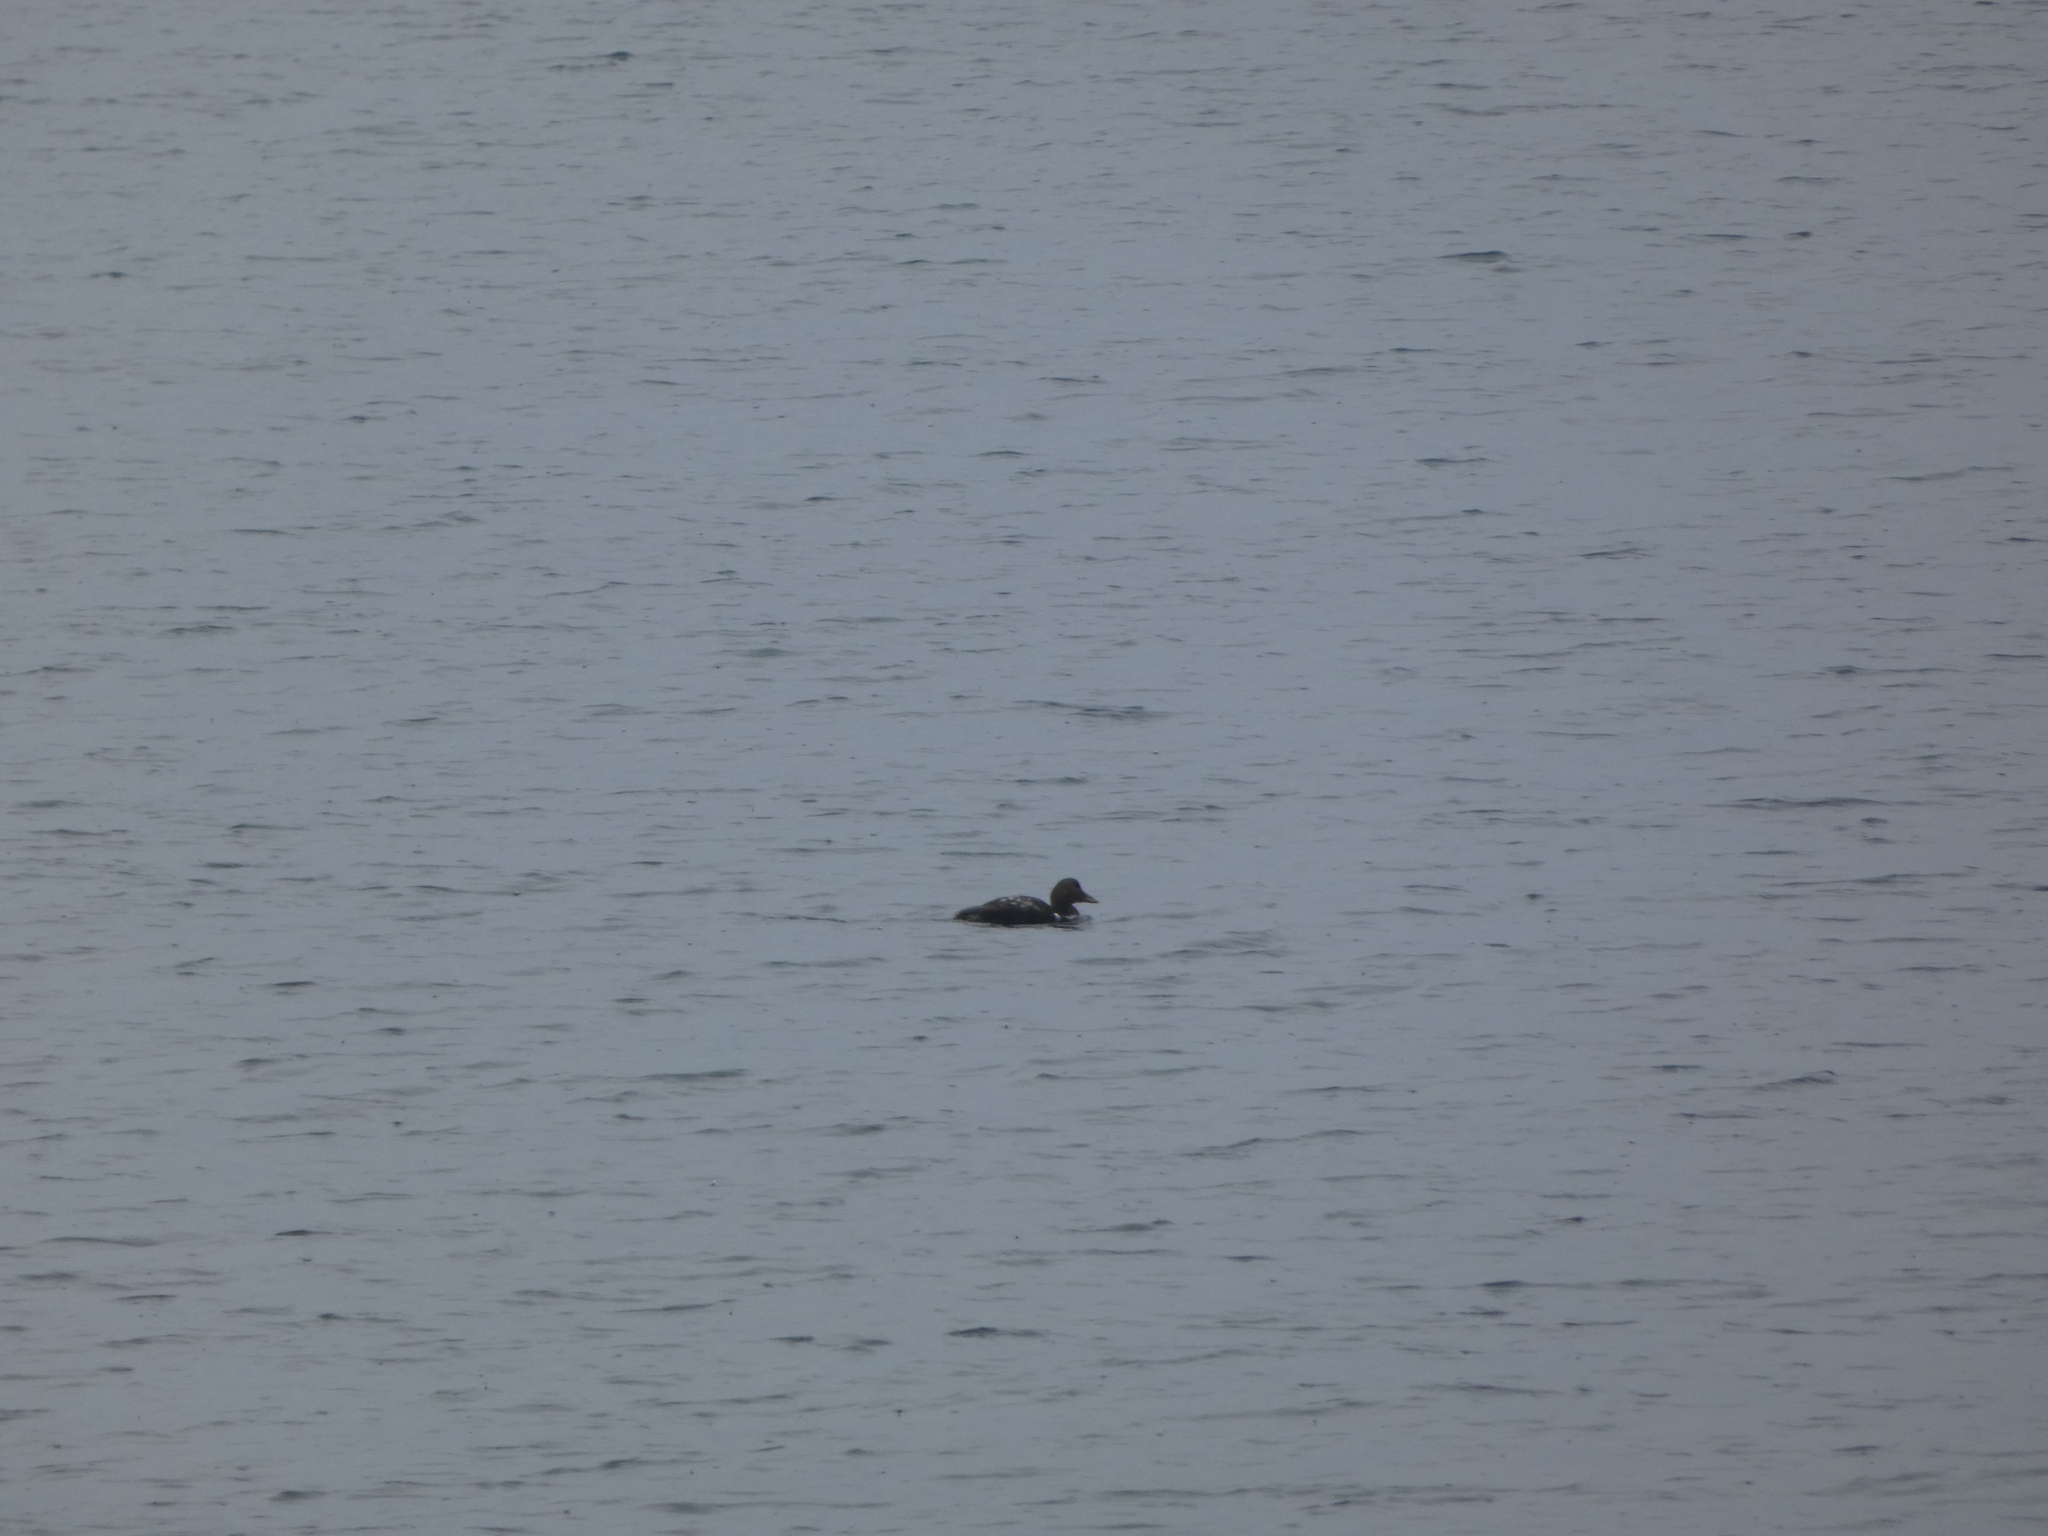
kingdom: Animalia
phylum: Chordata
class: Aves
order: Anseriformes
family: Anatidae
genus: Somateria
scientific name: Somateria mollissima
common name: Common eider
